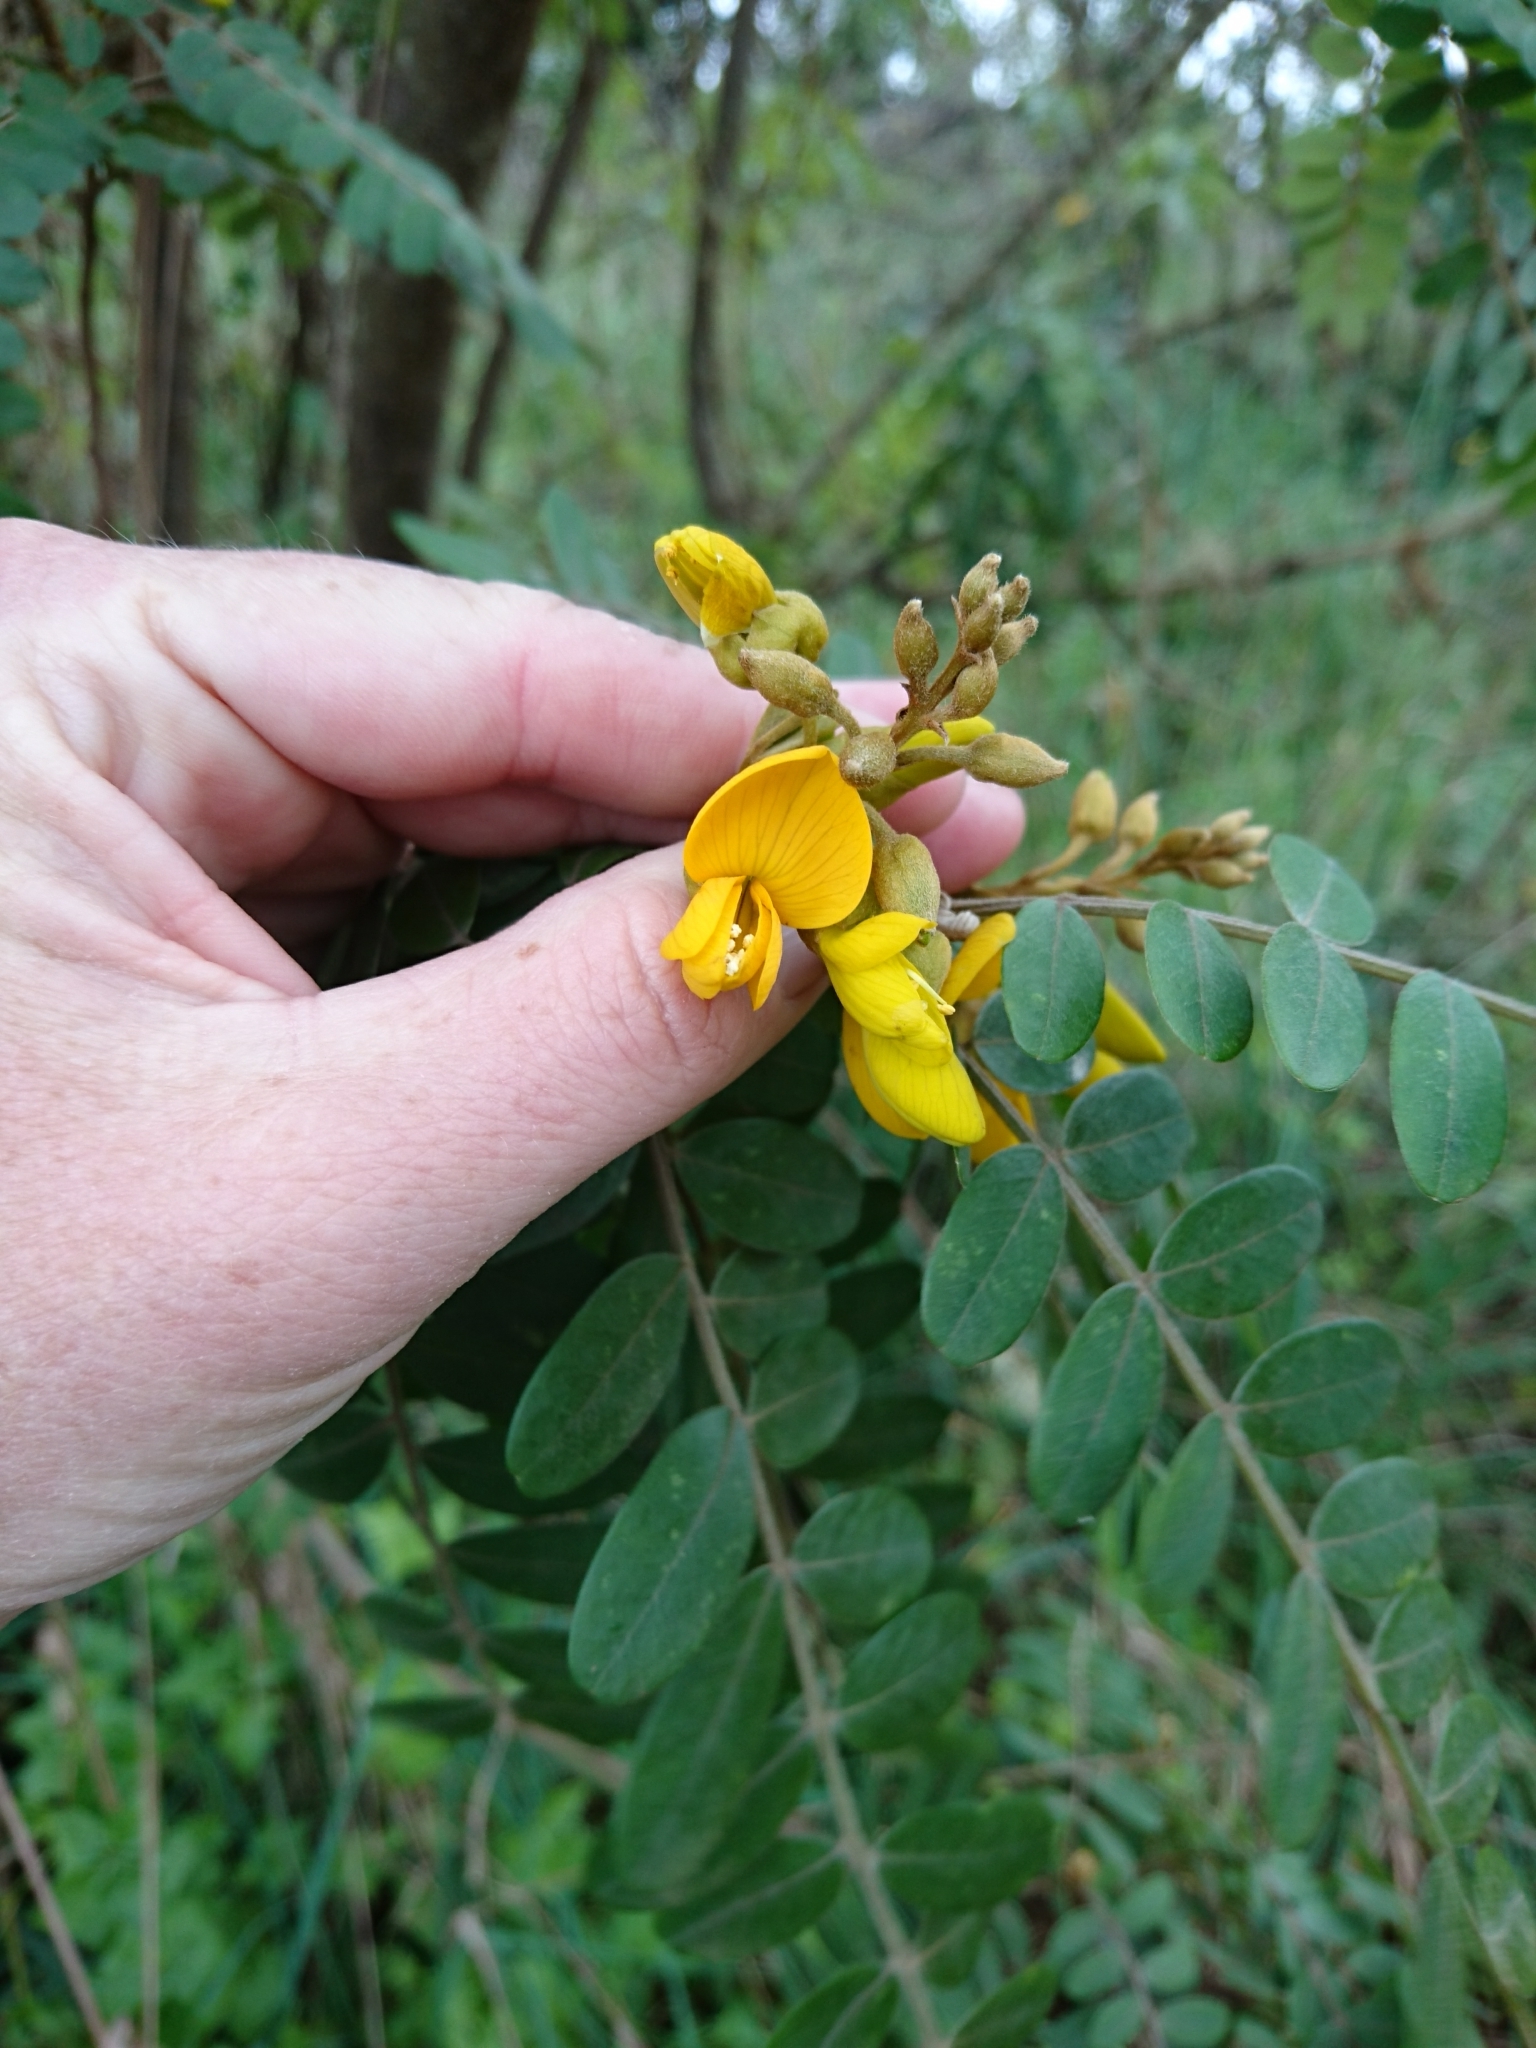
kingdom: Plantae
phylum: Tracheophyta
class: Magnoliopsida
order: Fabales
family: Fabaceae
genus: Sophora
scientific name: Sophora chrysophylla
